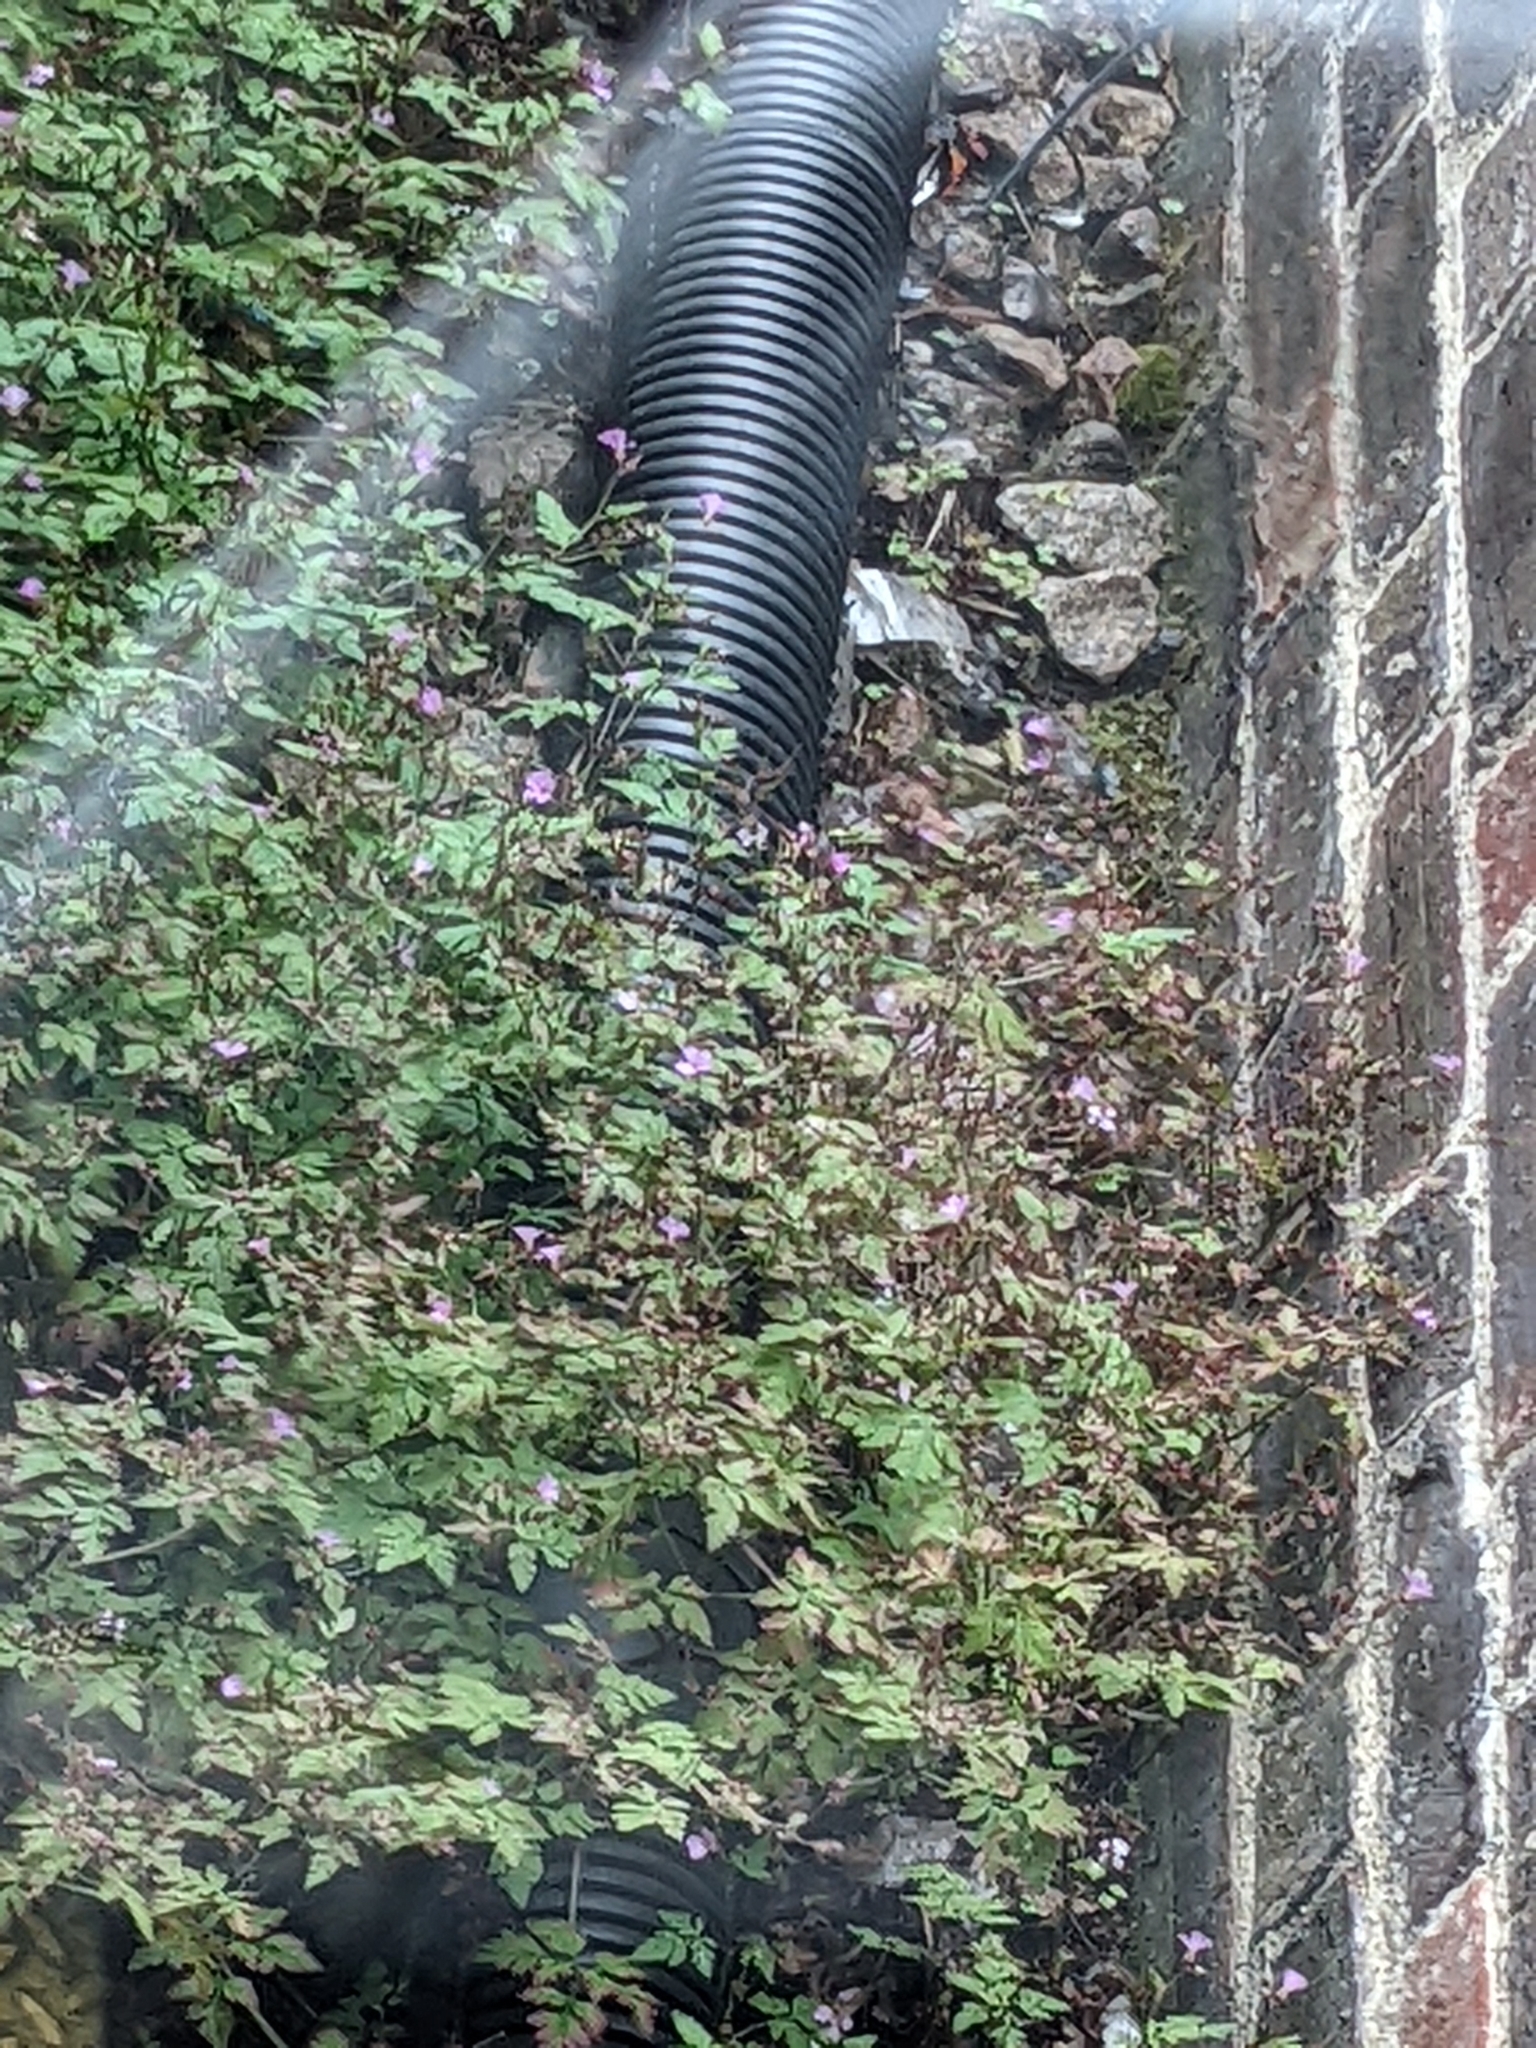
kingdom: Plantae
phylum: Tracheophyta
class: Magnoliopsida
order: Geraniales
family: Geraniaceae
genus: Geranium
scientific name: Geranium robertianum
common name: Herb-robert
